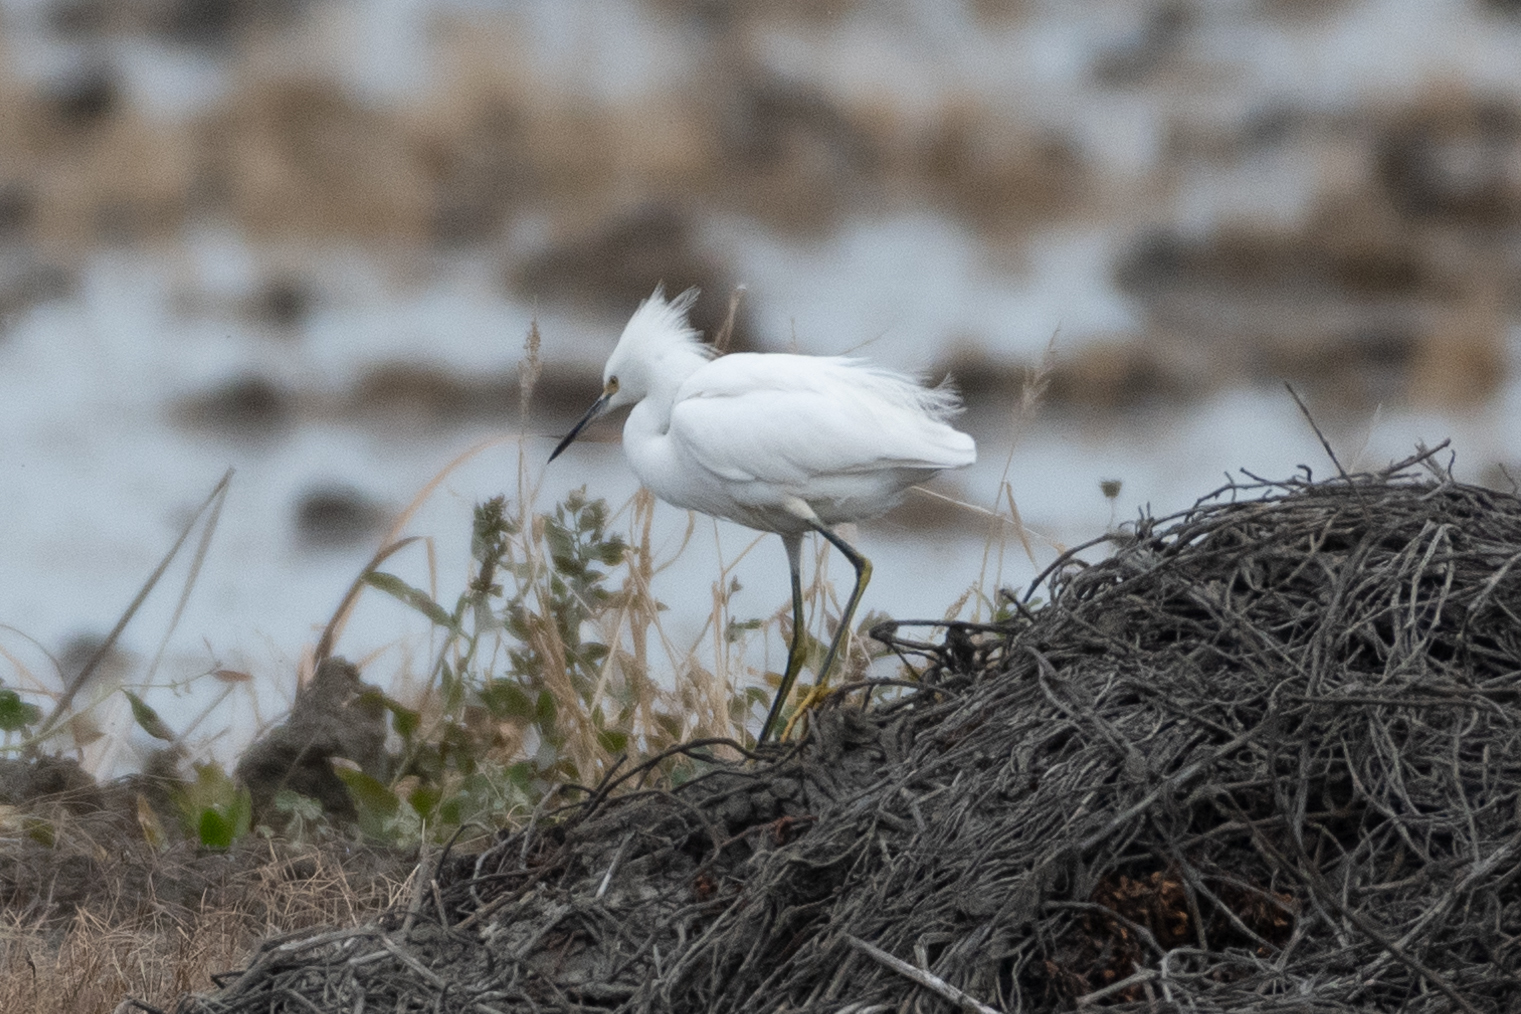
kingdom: Animalia
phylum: Chordata
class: Aves
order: Pelecaniformes
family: Ardeidae
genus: Egretta
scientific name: Egretta thula
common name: Snowy egret
